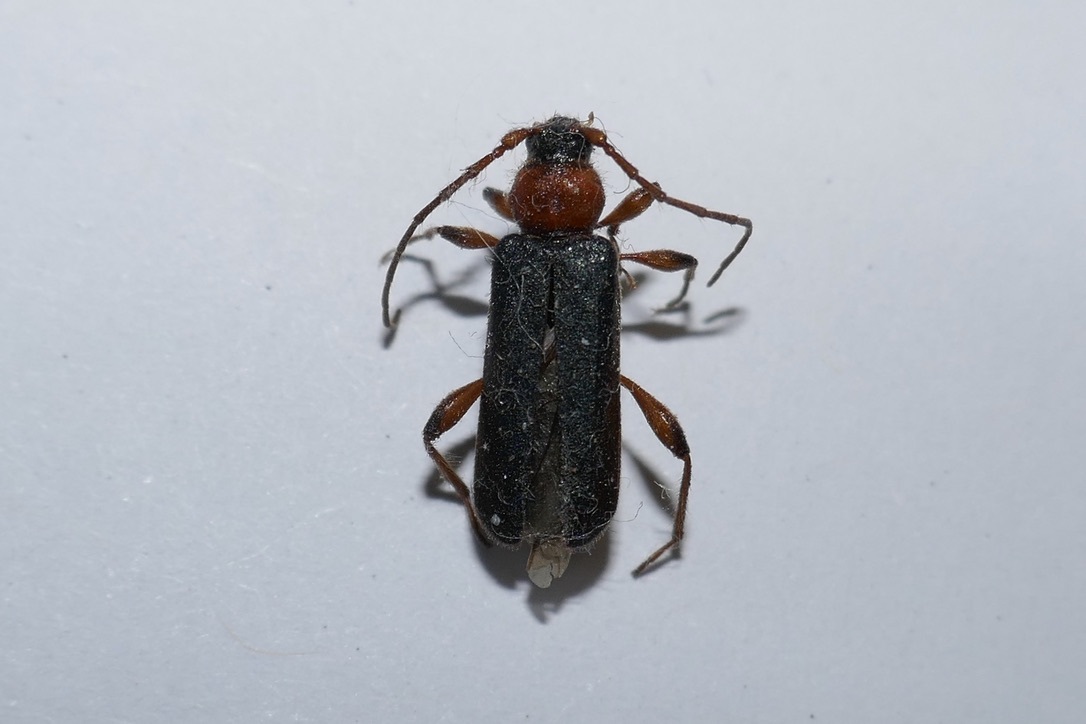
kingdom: Animalia
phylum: Arthropoda
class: Insecta
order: Coleoptera
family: Cerambycidae
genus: Phymatodes
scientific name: Phymatodes testaceus
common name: Long-horned beetle
